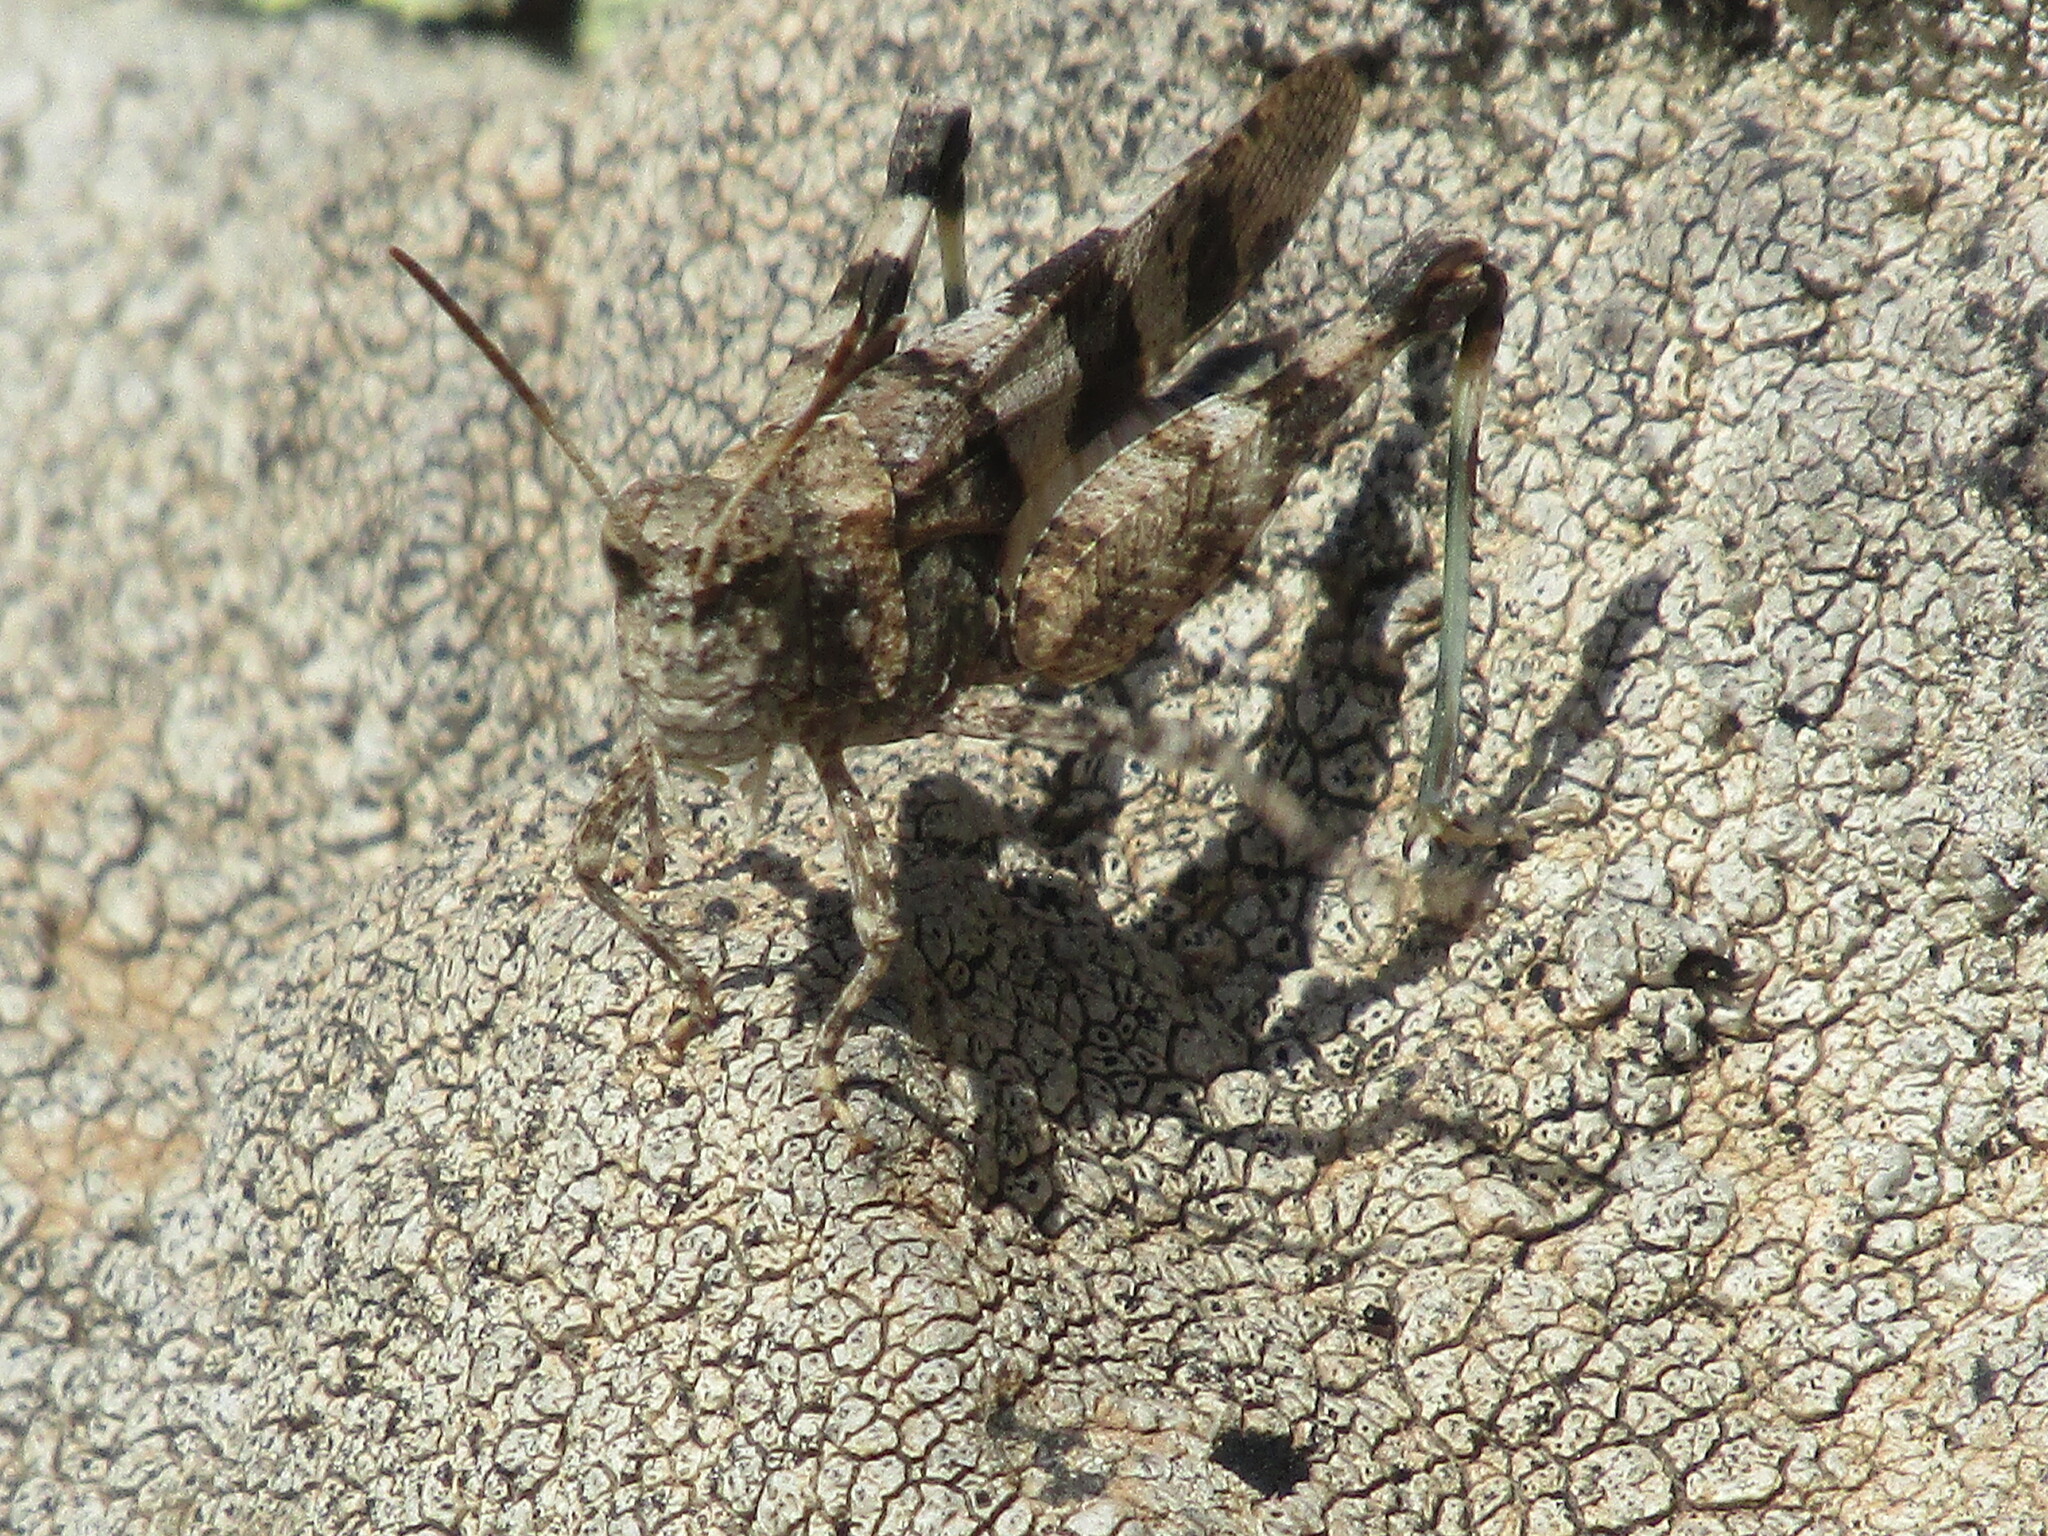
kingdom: Animalia
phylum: Arthropoda
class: Insecta
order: Orthoptera
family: Acrididae
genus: Oedipoda
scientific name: Oedipoda caerulescens
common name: Blue-winged grasshopper
